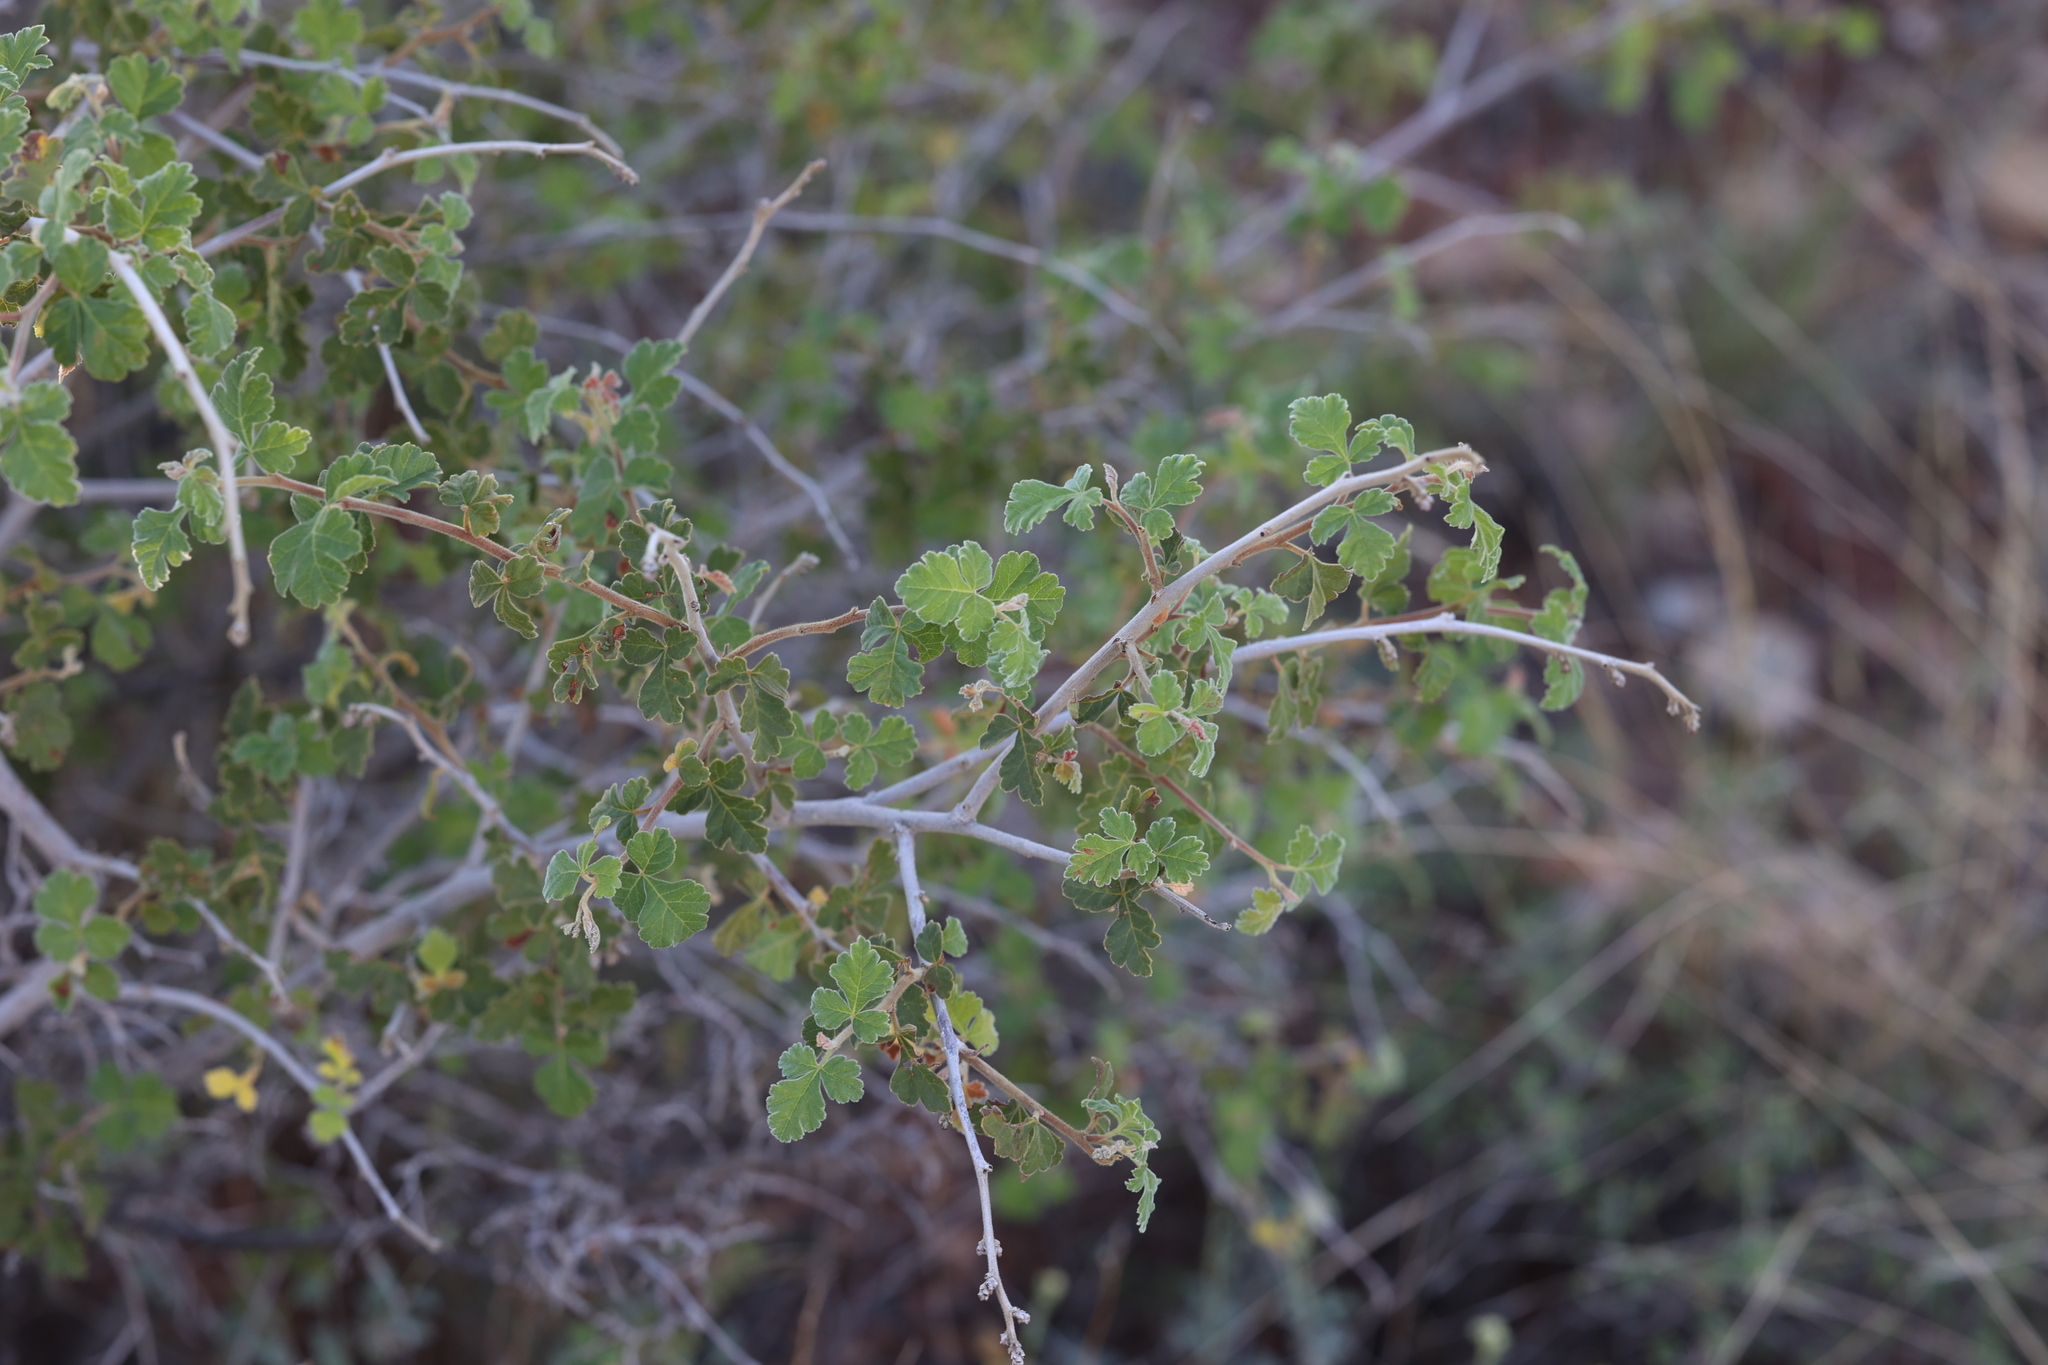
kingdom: Plantae
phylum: Tracheophyta
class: Magnoliopsida
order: Sapindales
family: Anacardiaceae
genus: Rhus
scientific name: Rhus trilobata
